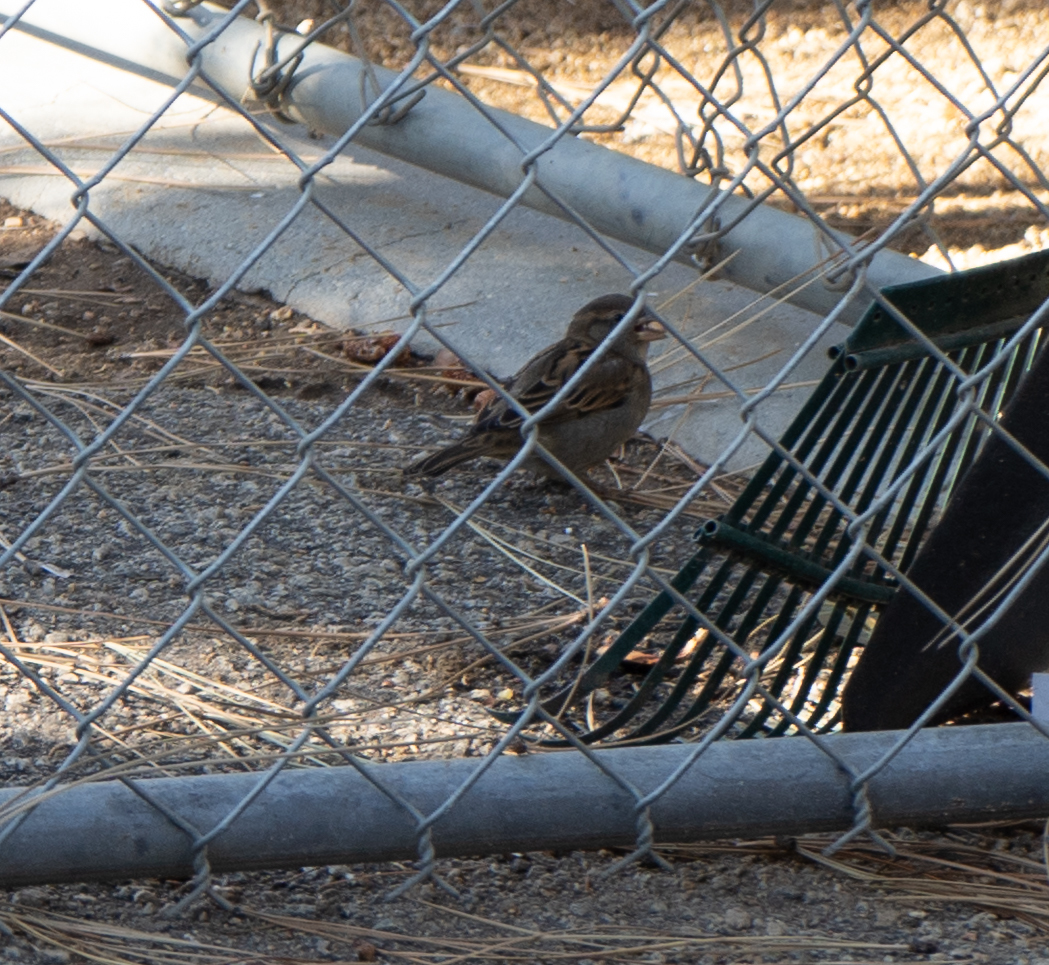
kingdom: Animalia
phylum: Chordata
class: Aves
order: Passeriformes
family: Passeridae
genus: Passer
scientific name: Passer domesticus
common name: House sparrow
